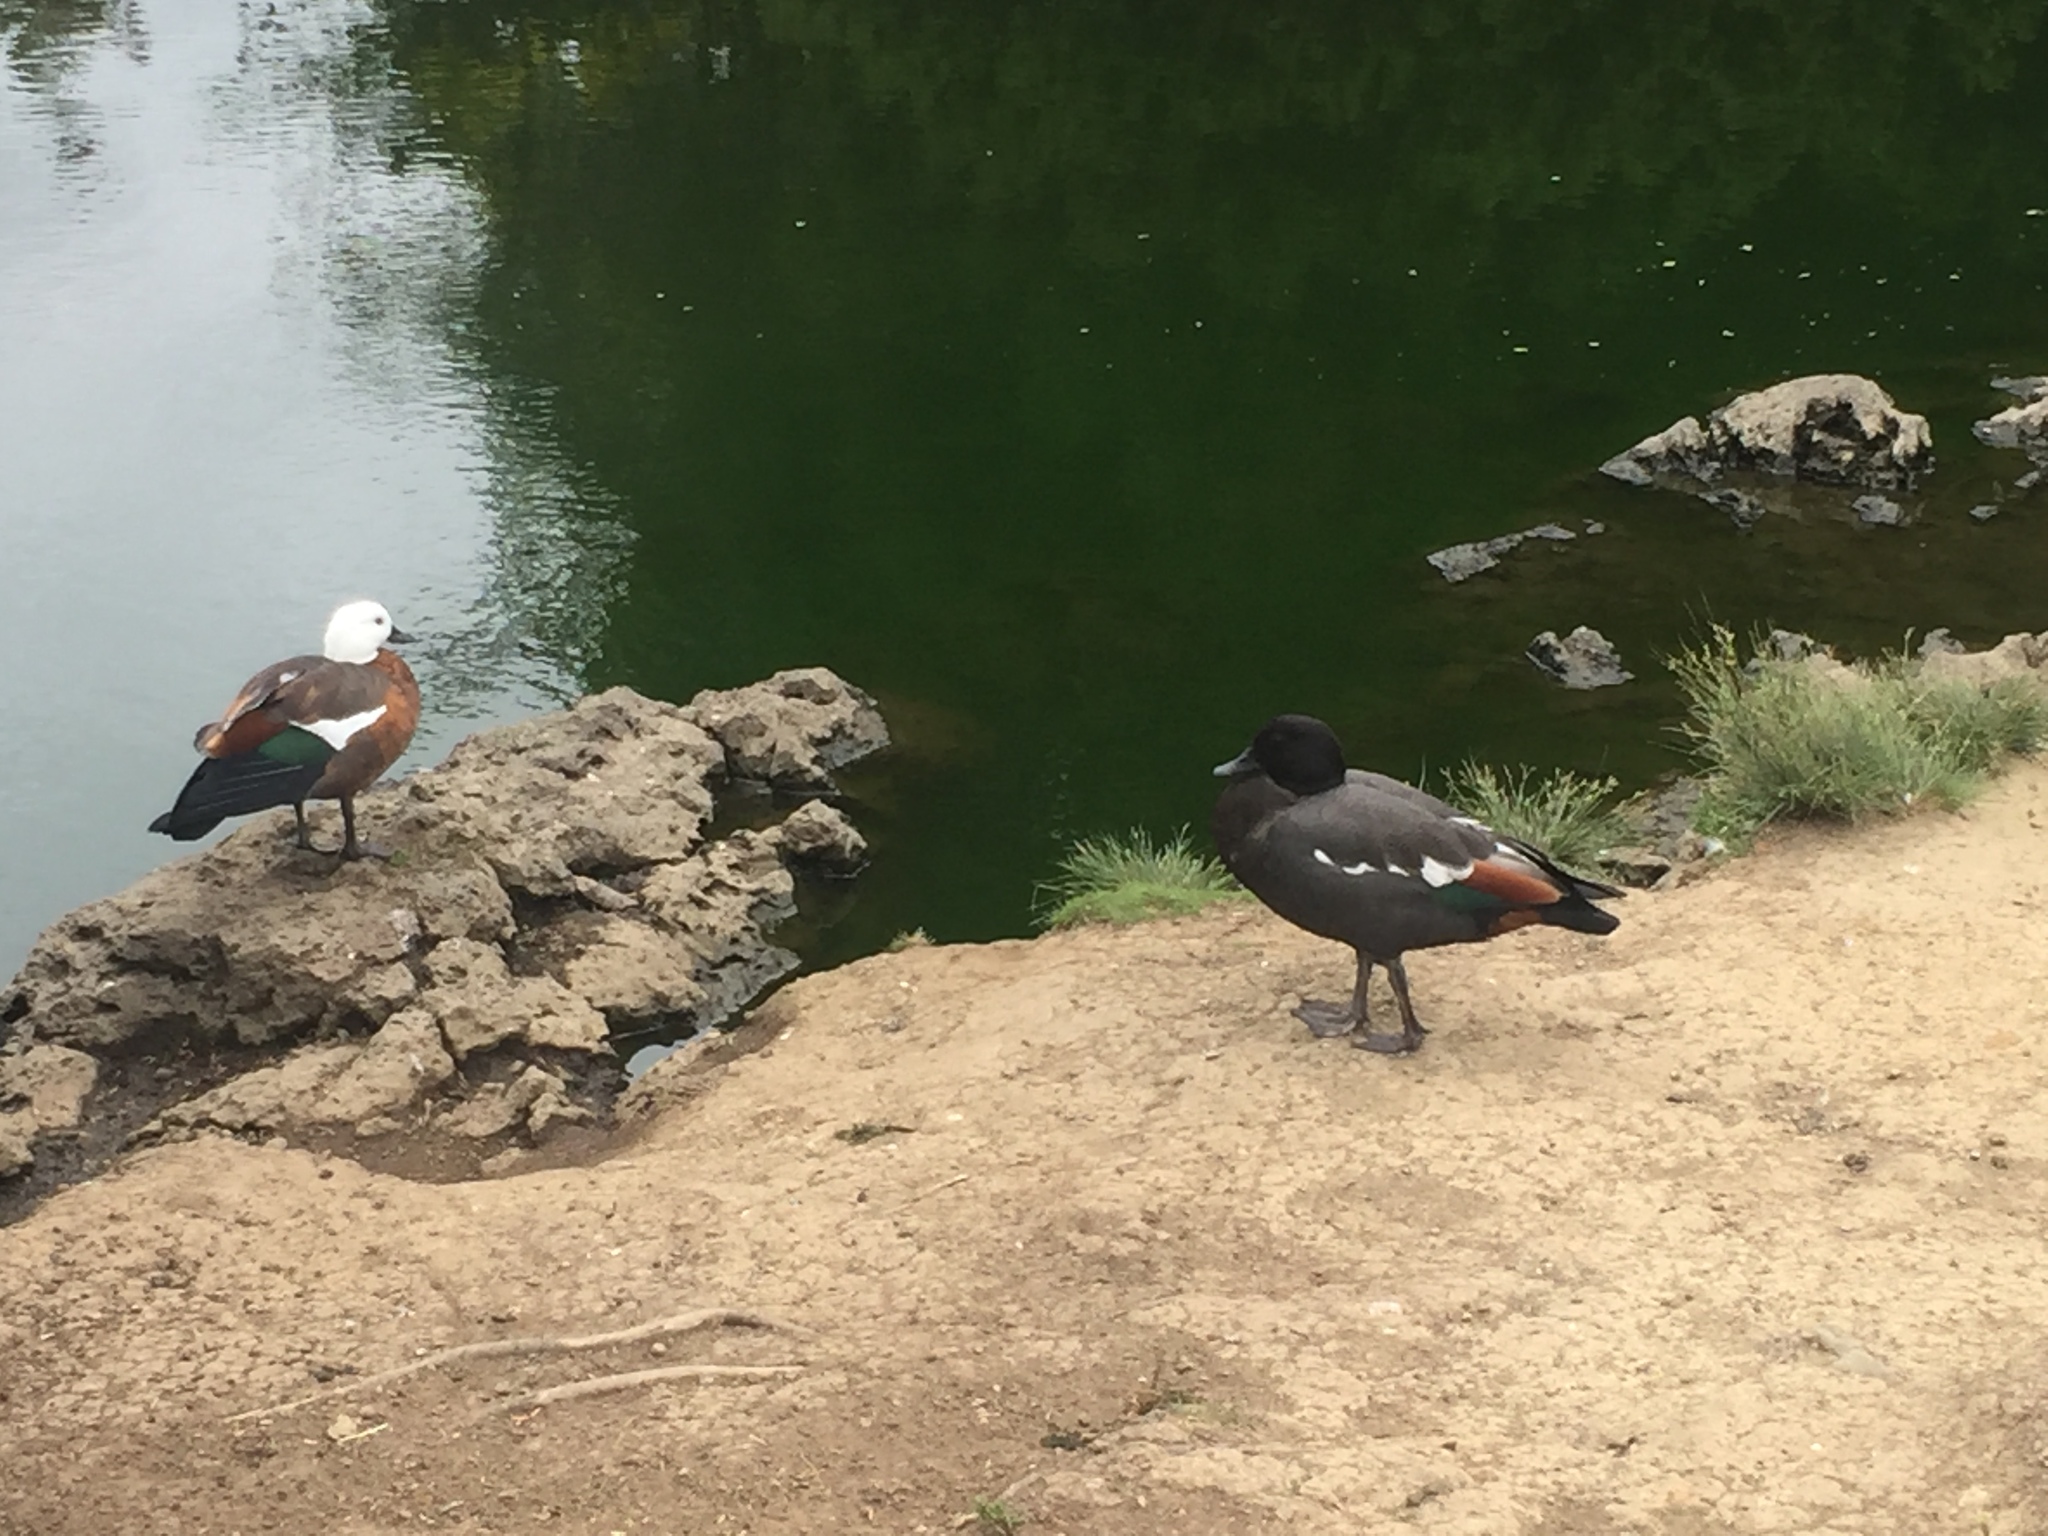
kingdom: Animalia
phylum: Chordata
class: Aves
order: Anseriformes
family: Anatidae
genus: Tadorna
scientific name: Tadorna variegata
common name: Paradise shelduck
